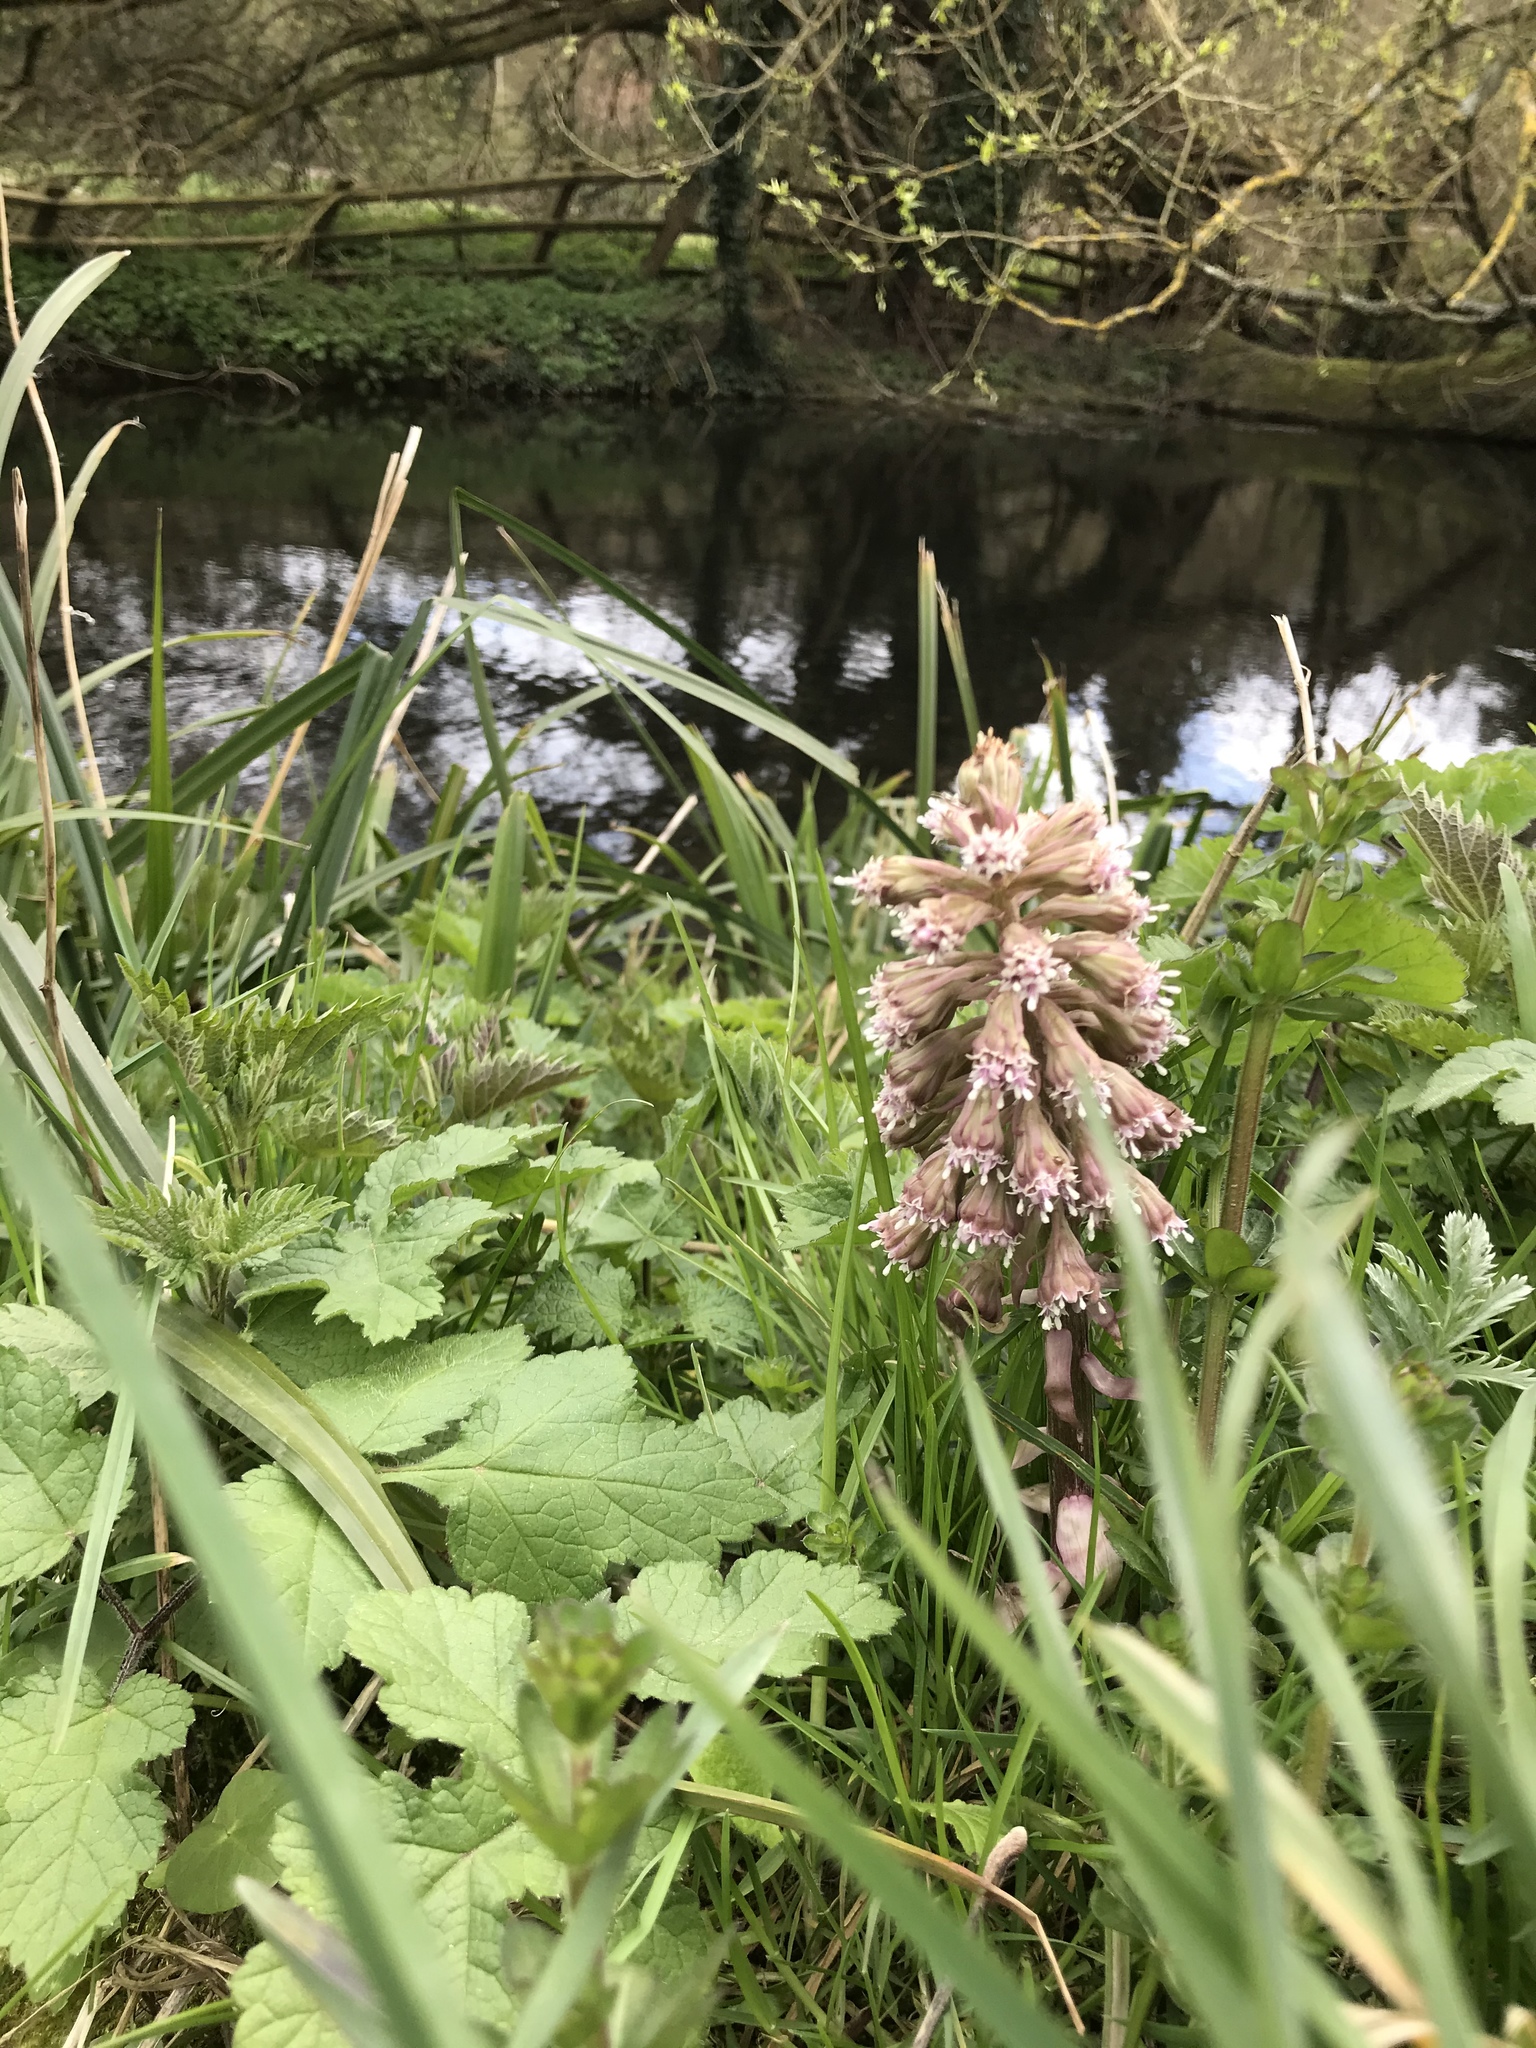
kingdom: Plantae
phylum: Tracheophyta
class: Magnoliopsida
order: Asterales
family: Asteraceae
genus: Petasites
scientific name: Petasites hybridus
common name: Butterbur
